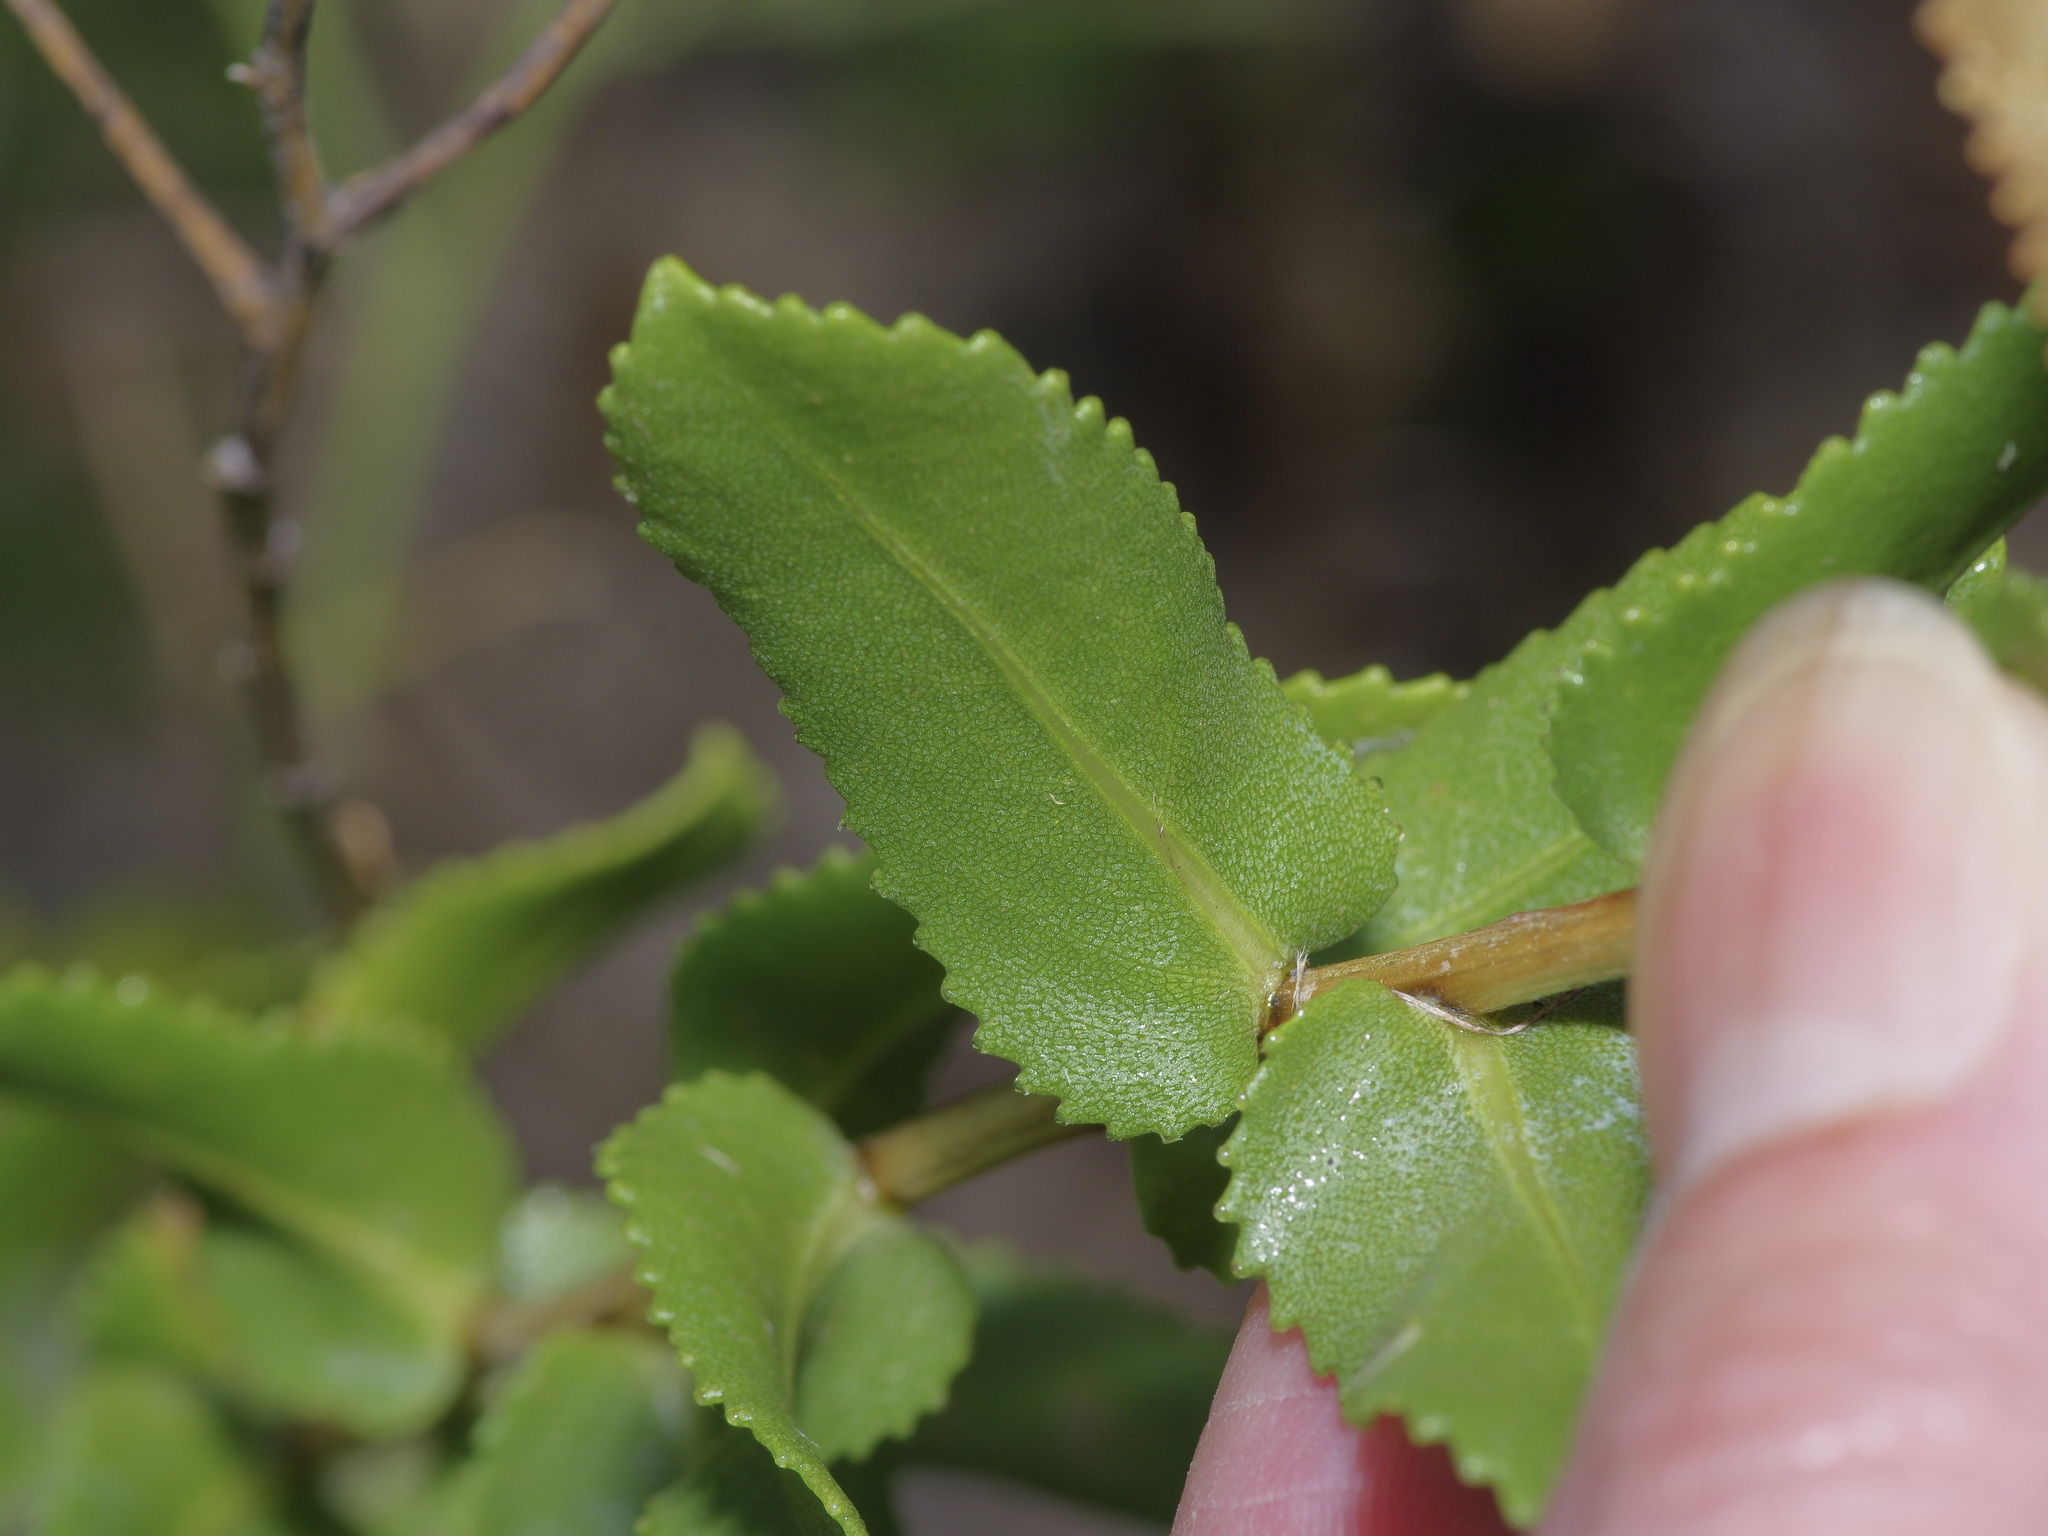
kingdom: Plantae
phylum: Tracheophyta
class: Magnoliopsida
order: Asterales
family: Asteraceae
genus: Grindelia
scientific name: Grindelia nuda
